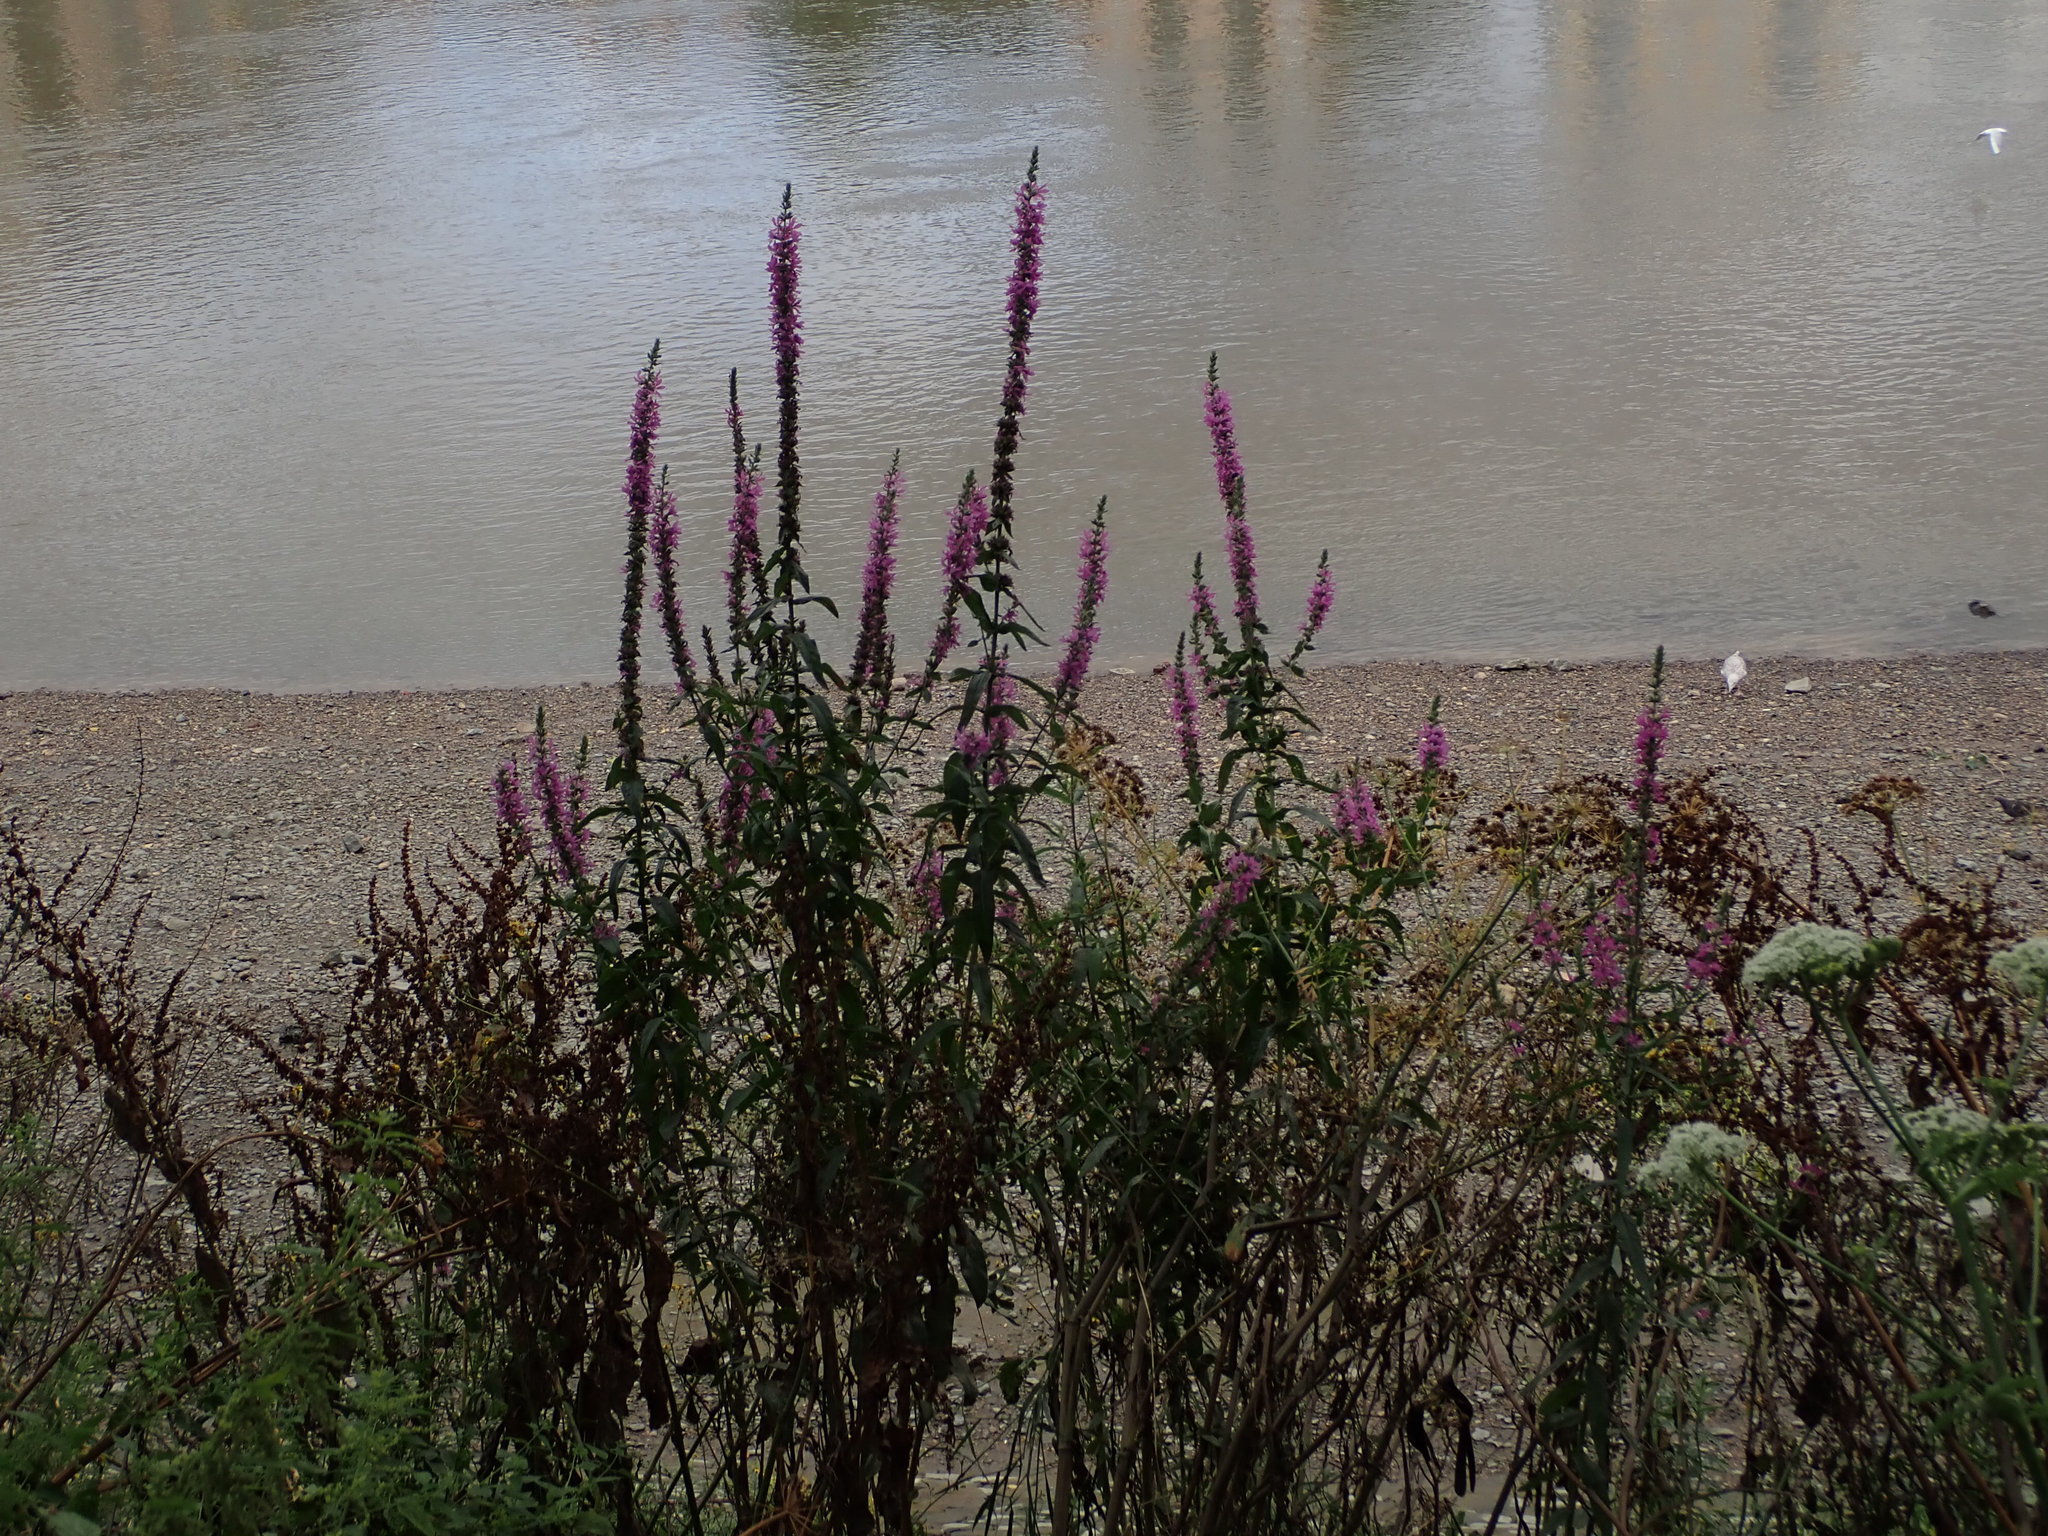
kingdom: Plantae
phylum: Tracheophyta
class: Magnoliopsida
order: Myrtales
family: Lythraceae
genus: Lythrum
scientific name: Lythrum salicaria
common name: Purple loosestrife
